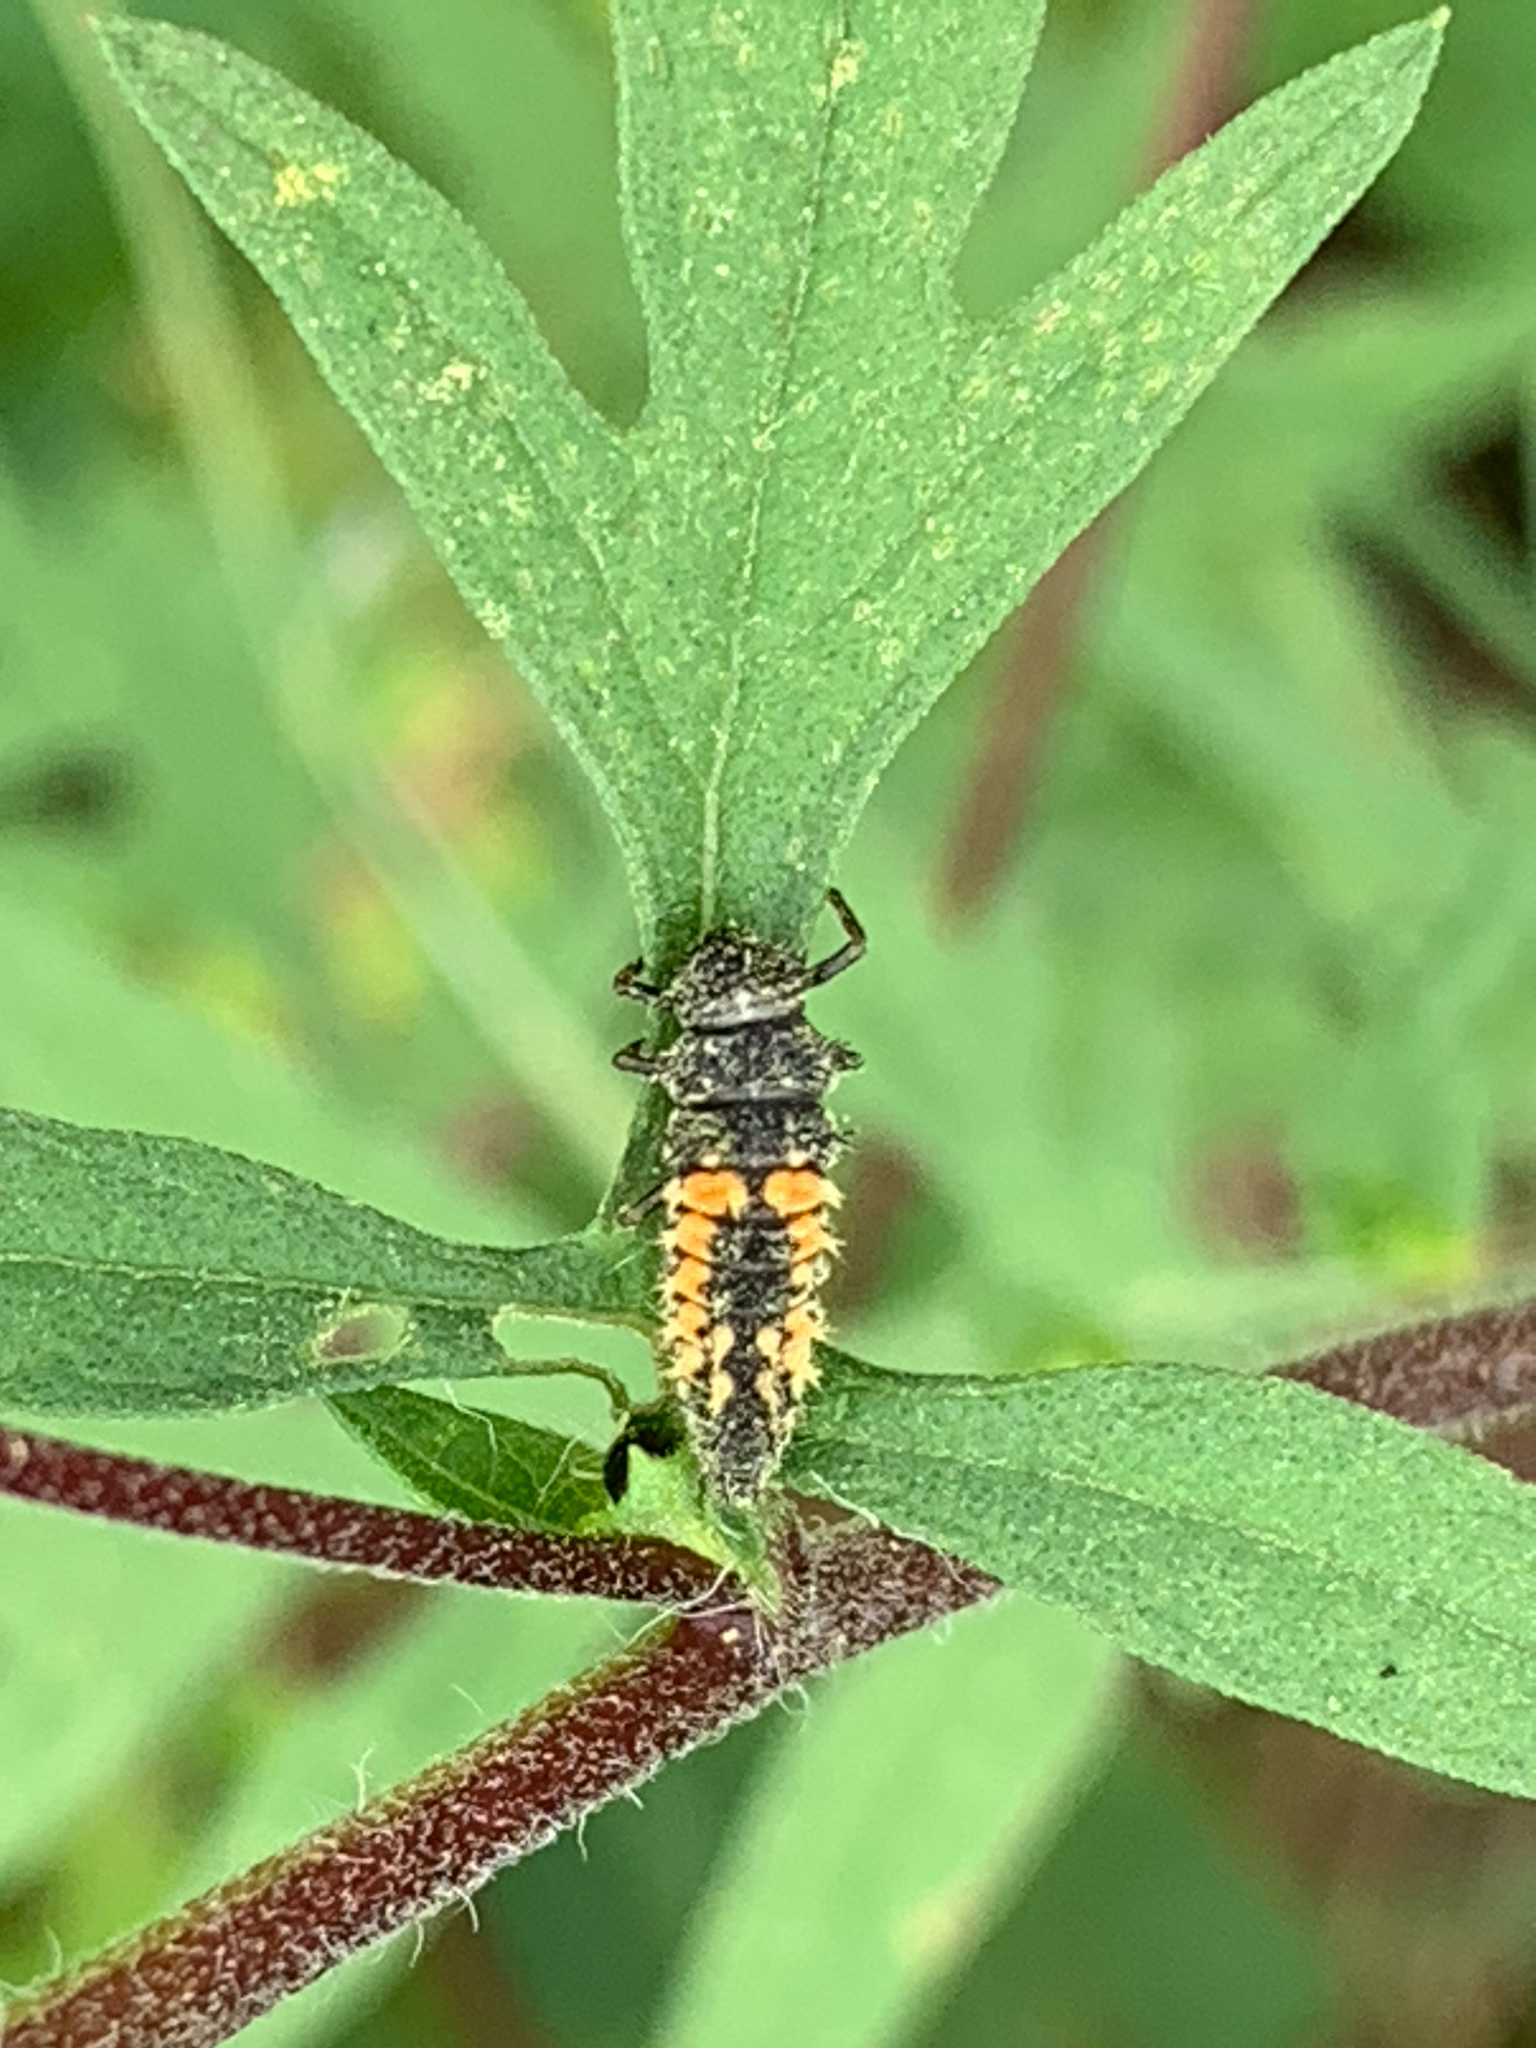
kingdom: Animalia
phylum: Arthropoda
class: Insecta
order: Coleoptera
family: Coccinellidae
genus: Harmonia
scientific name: Harmonia axyridis
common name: Harlequin ladybird
